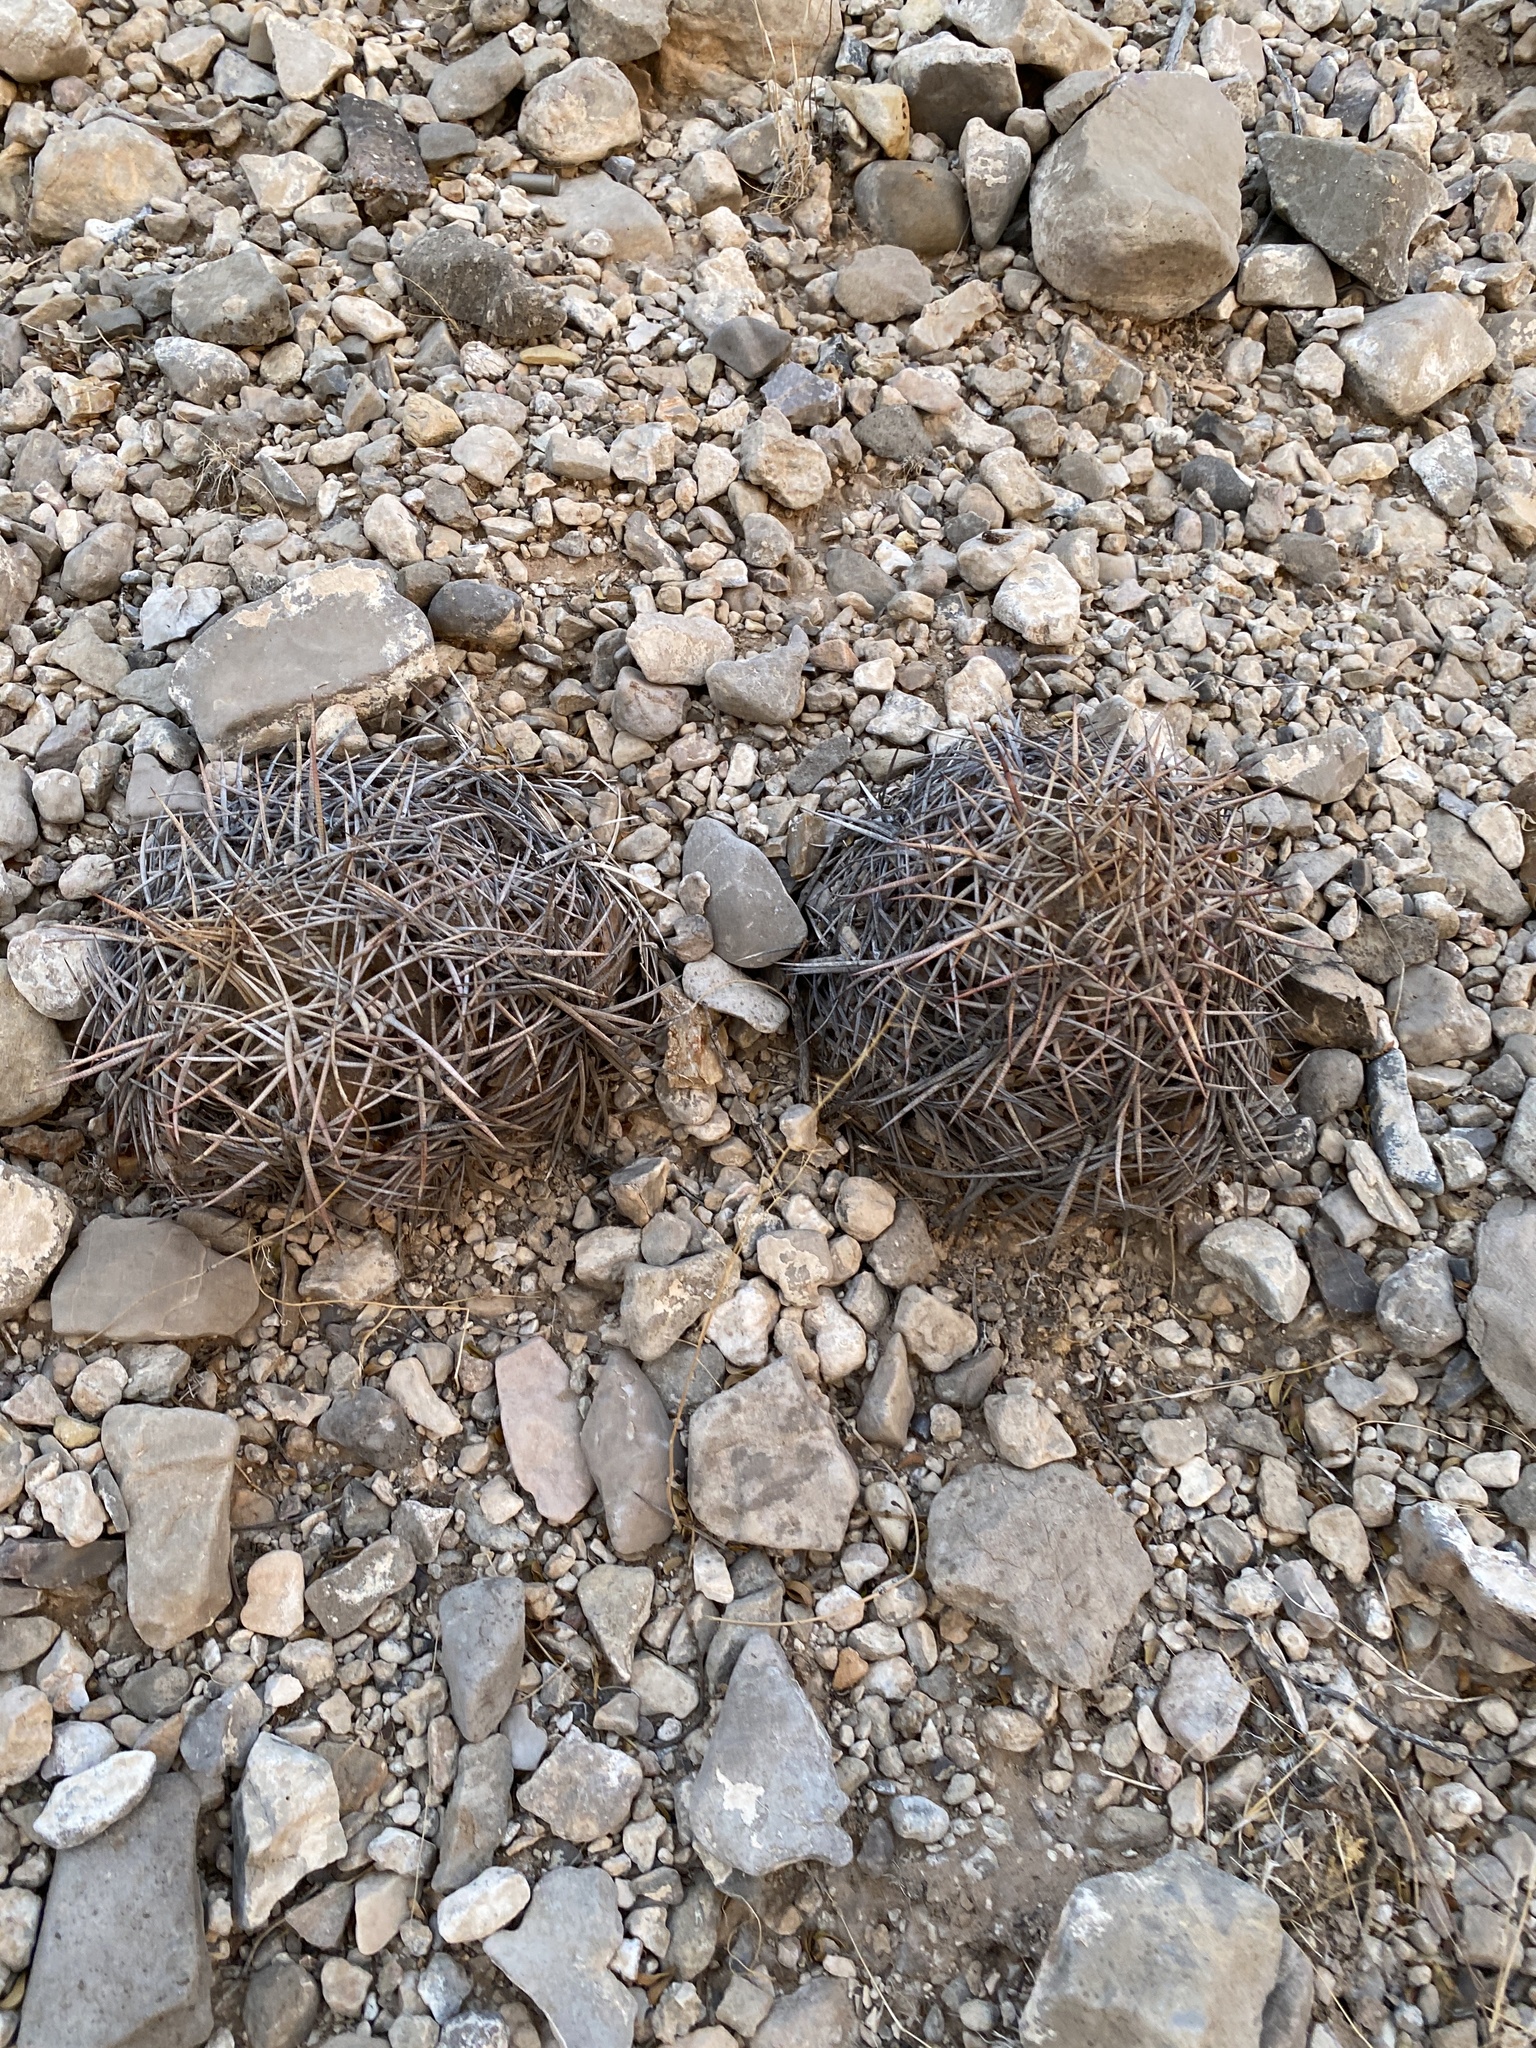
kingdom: Plantae
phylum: Tracheophyta
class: Magnoliopsida
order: Caryophyllales
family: Cactaceae
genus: Echinocactus
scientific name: Echinocactus horizonthalonius
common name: Devilshead
